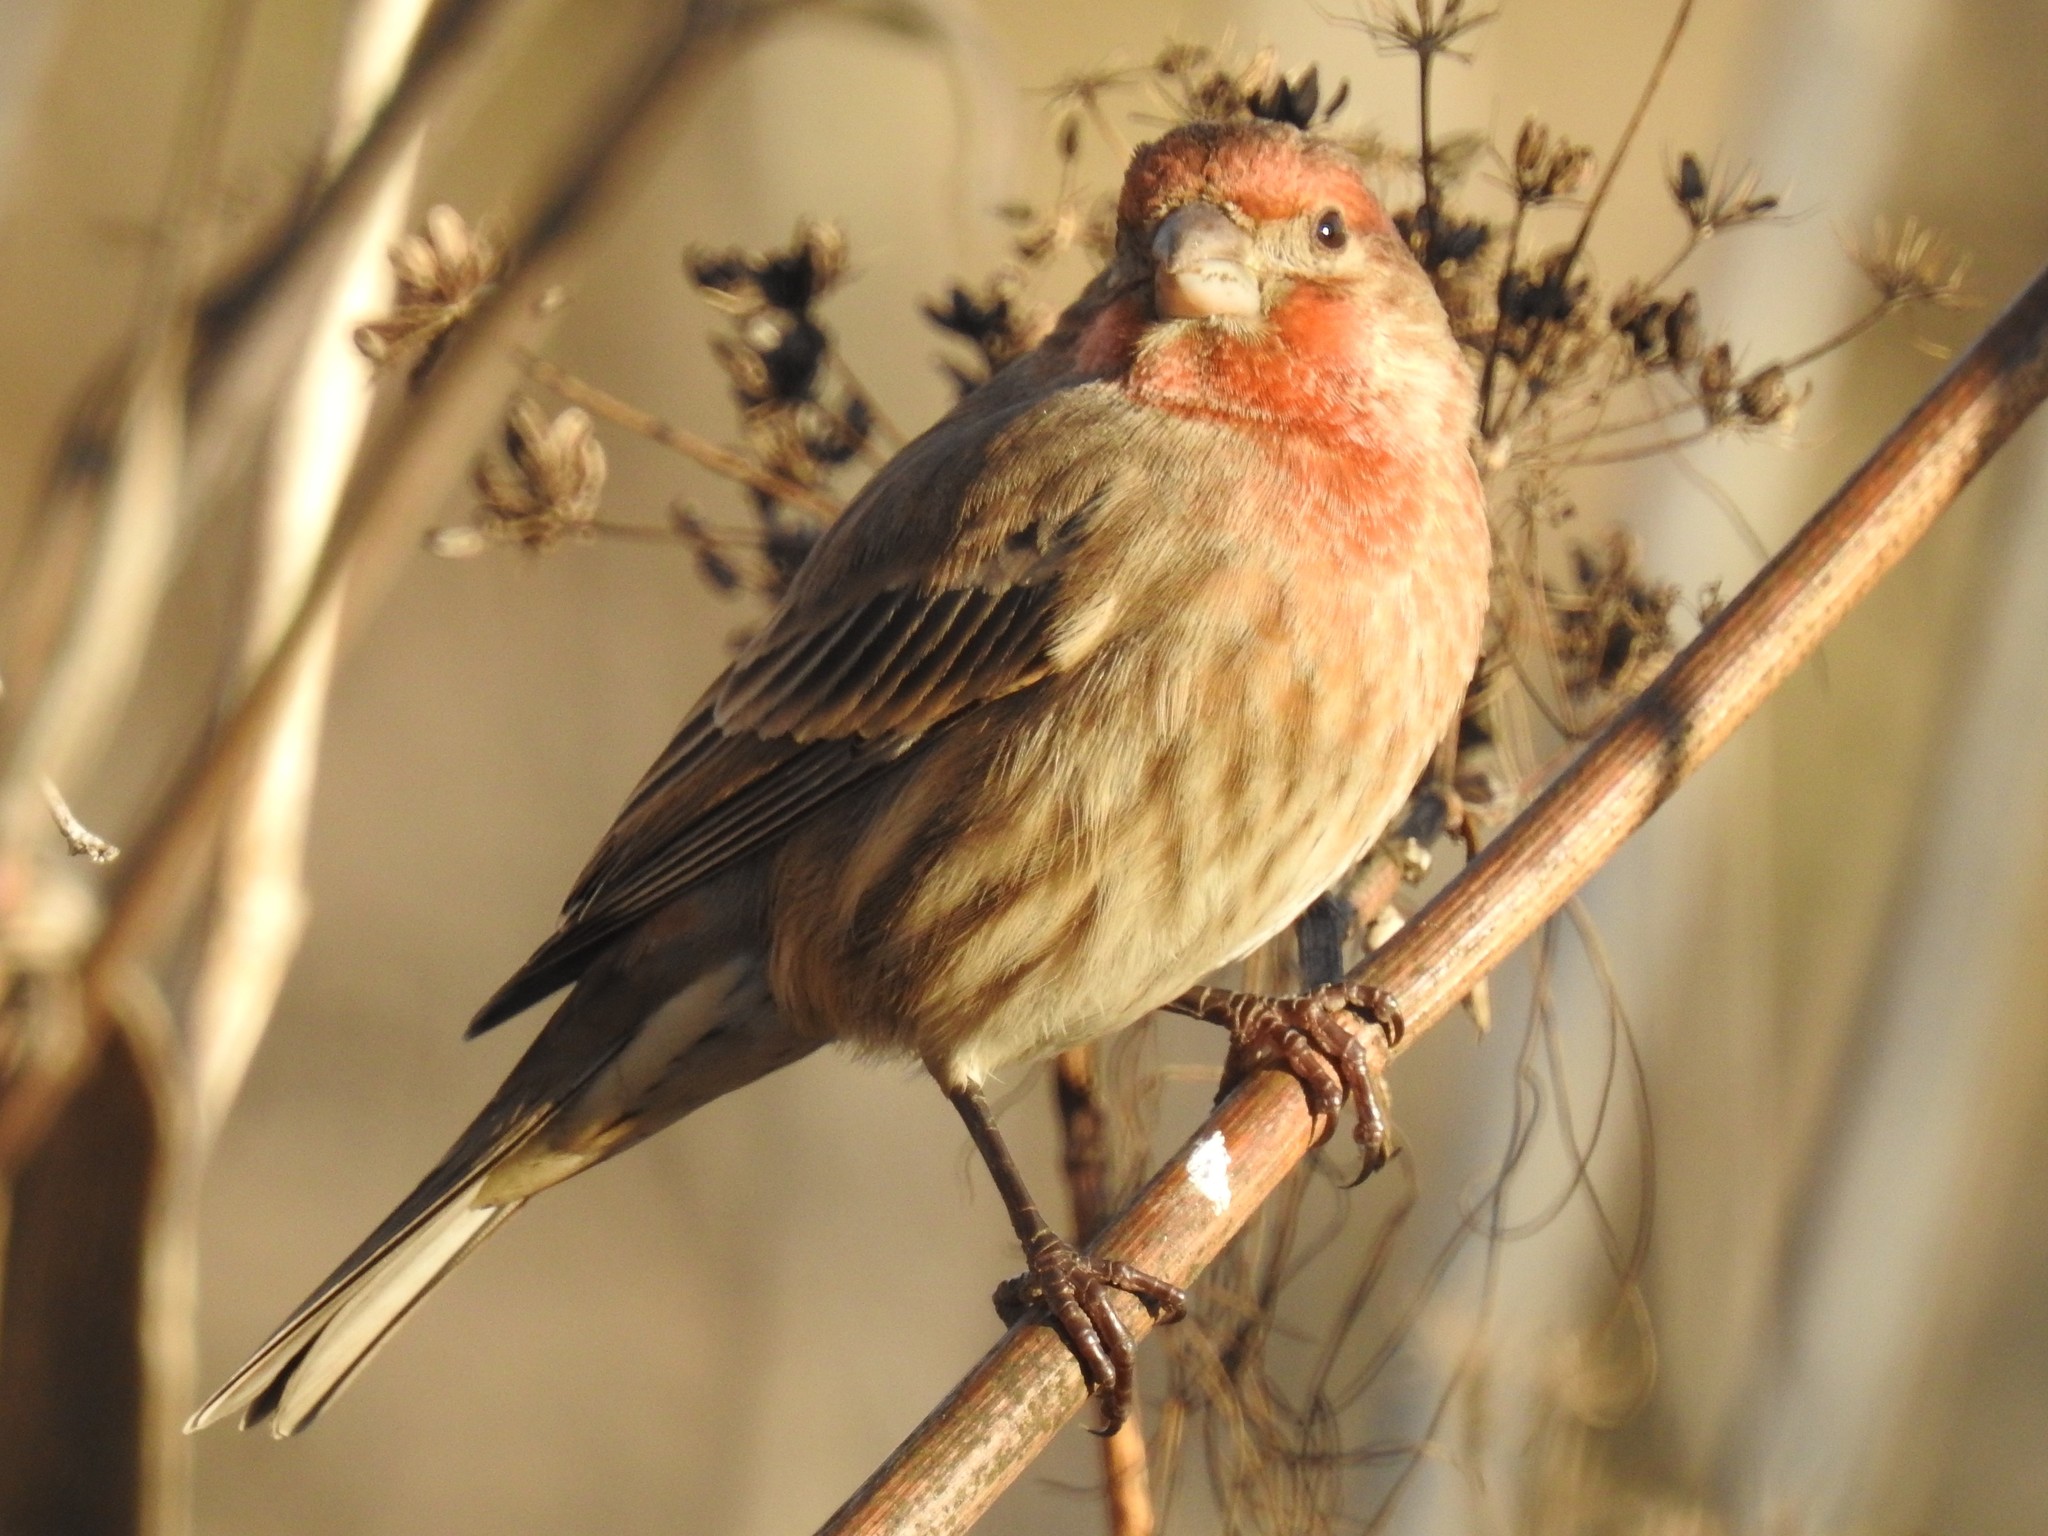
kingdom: Animalia
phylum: Chordata
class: Aves
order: Passeriformes
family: Fringillidae
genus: Haemorhous
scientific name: Haemorhous mexicanus
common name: House finch
